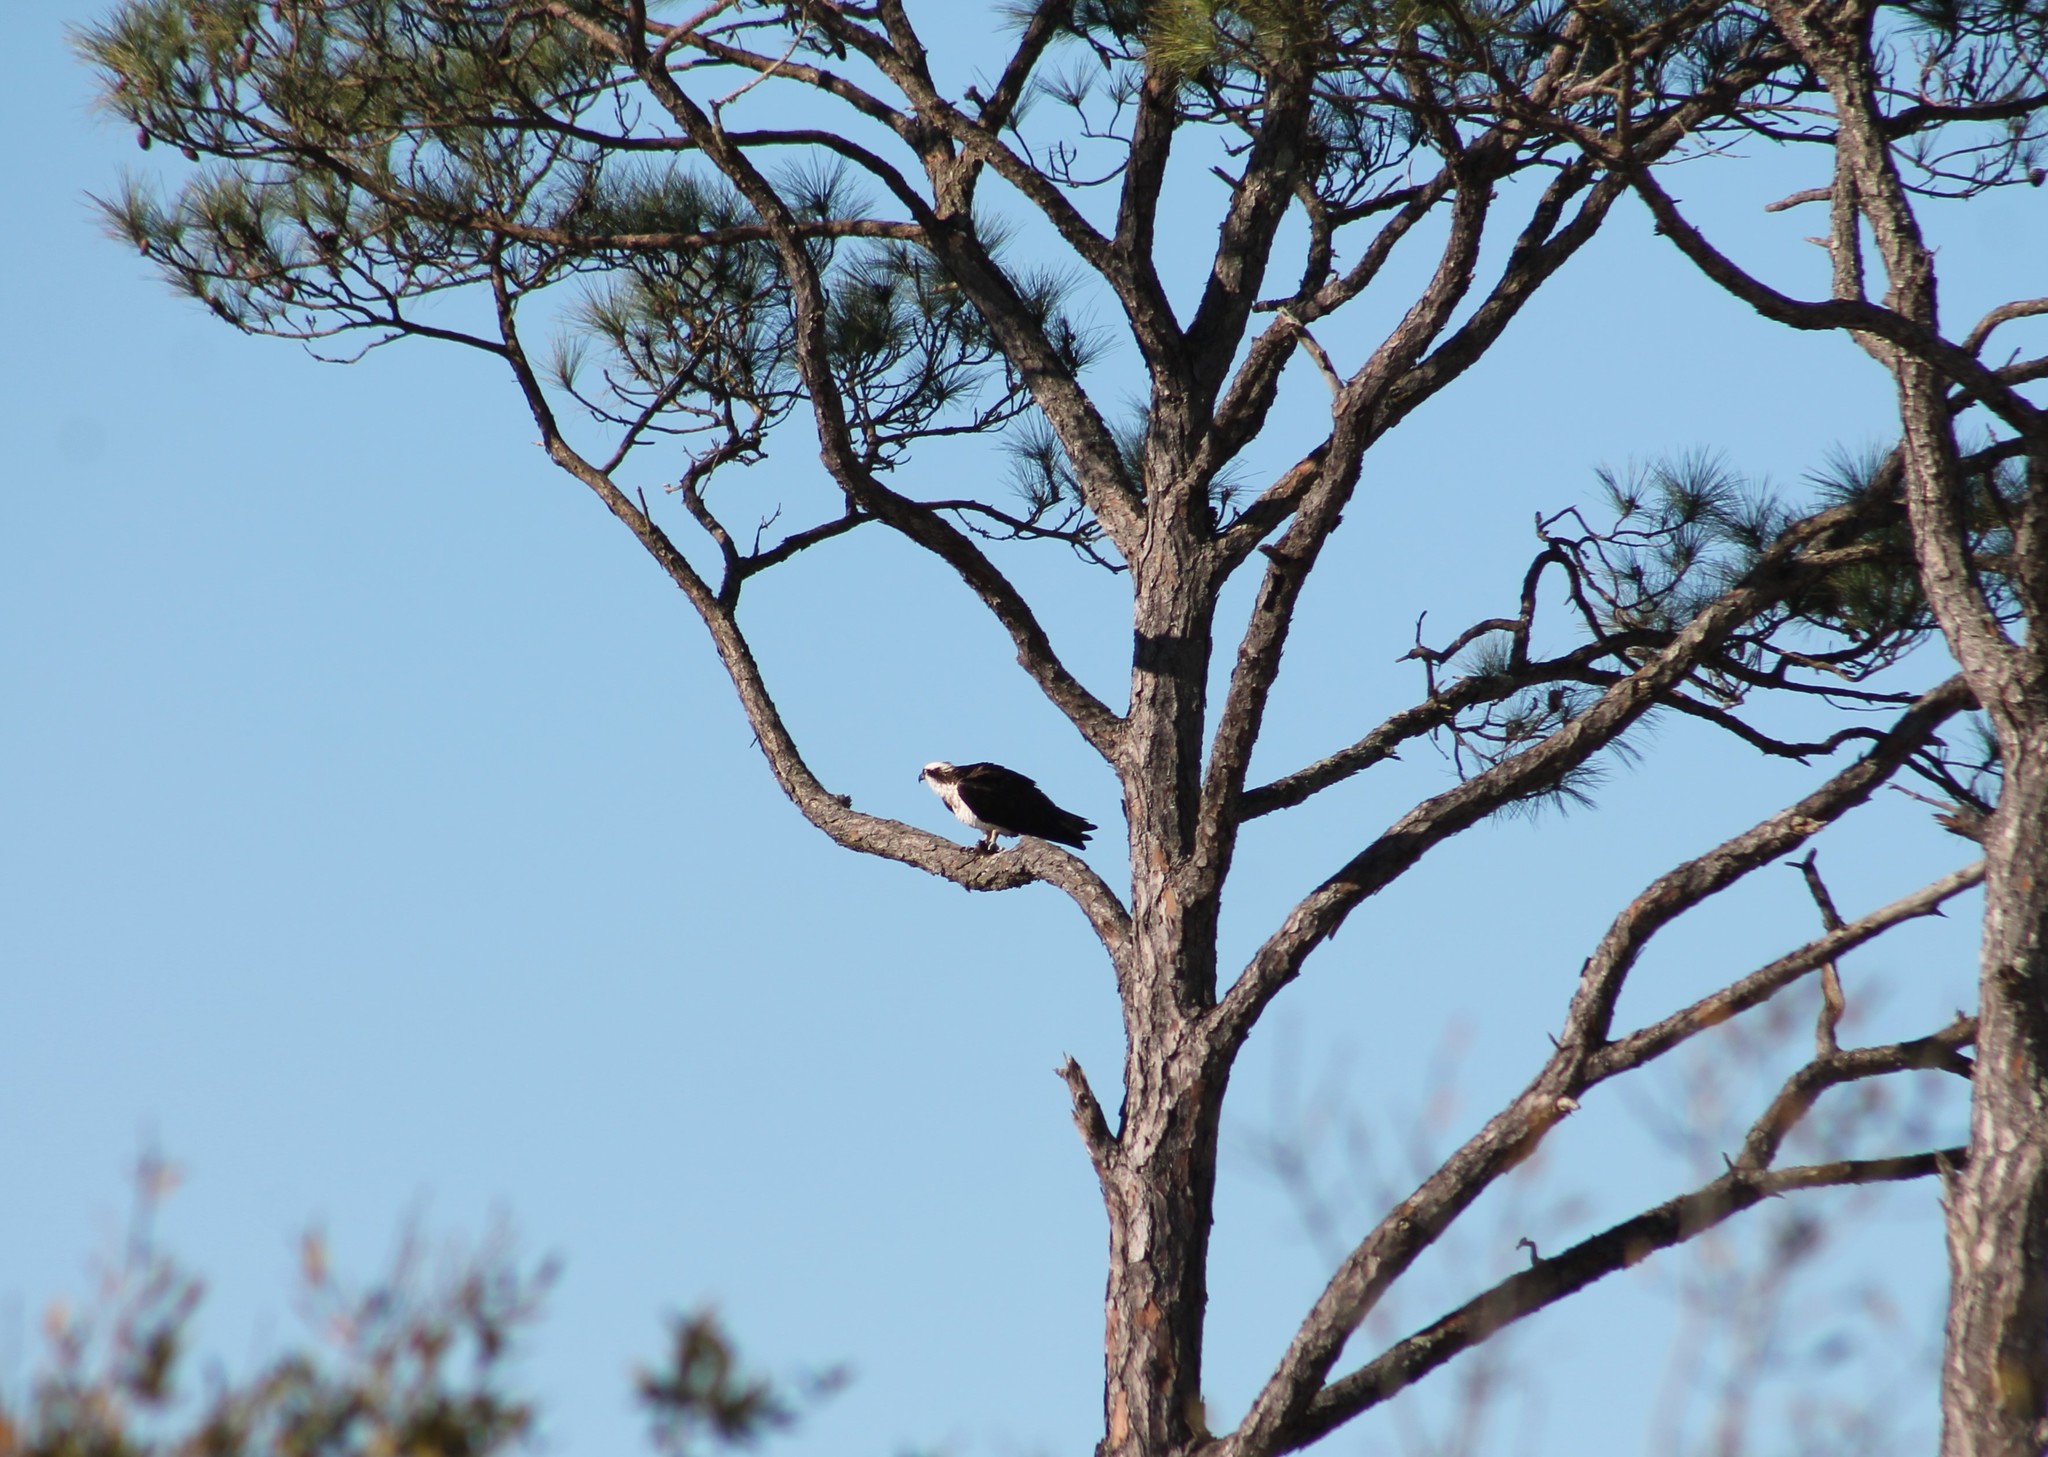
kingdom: Animalia
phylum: Chordata
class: Aves
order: Accipitriformes
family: Pandionidae
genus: Pandion
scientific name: Pandion haliaetus
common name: Osprey
